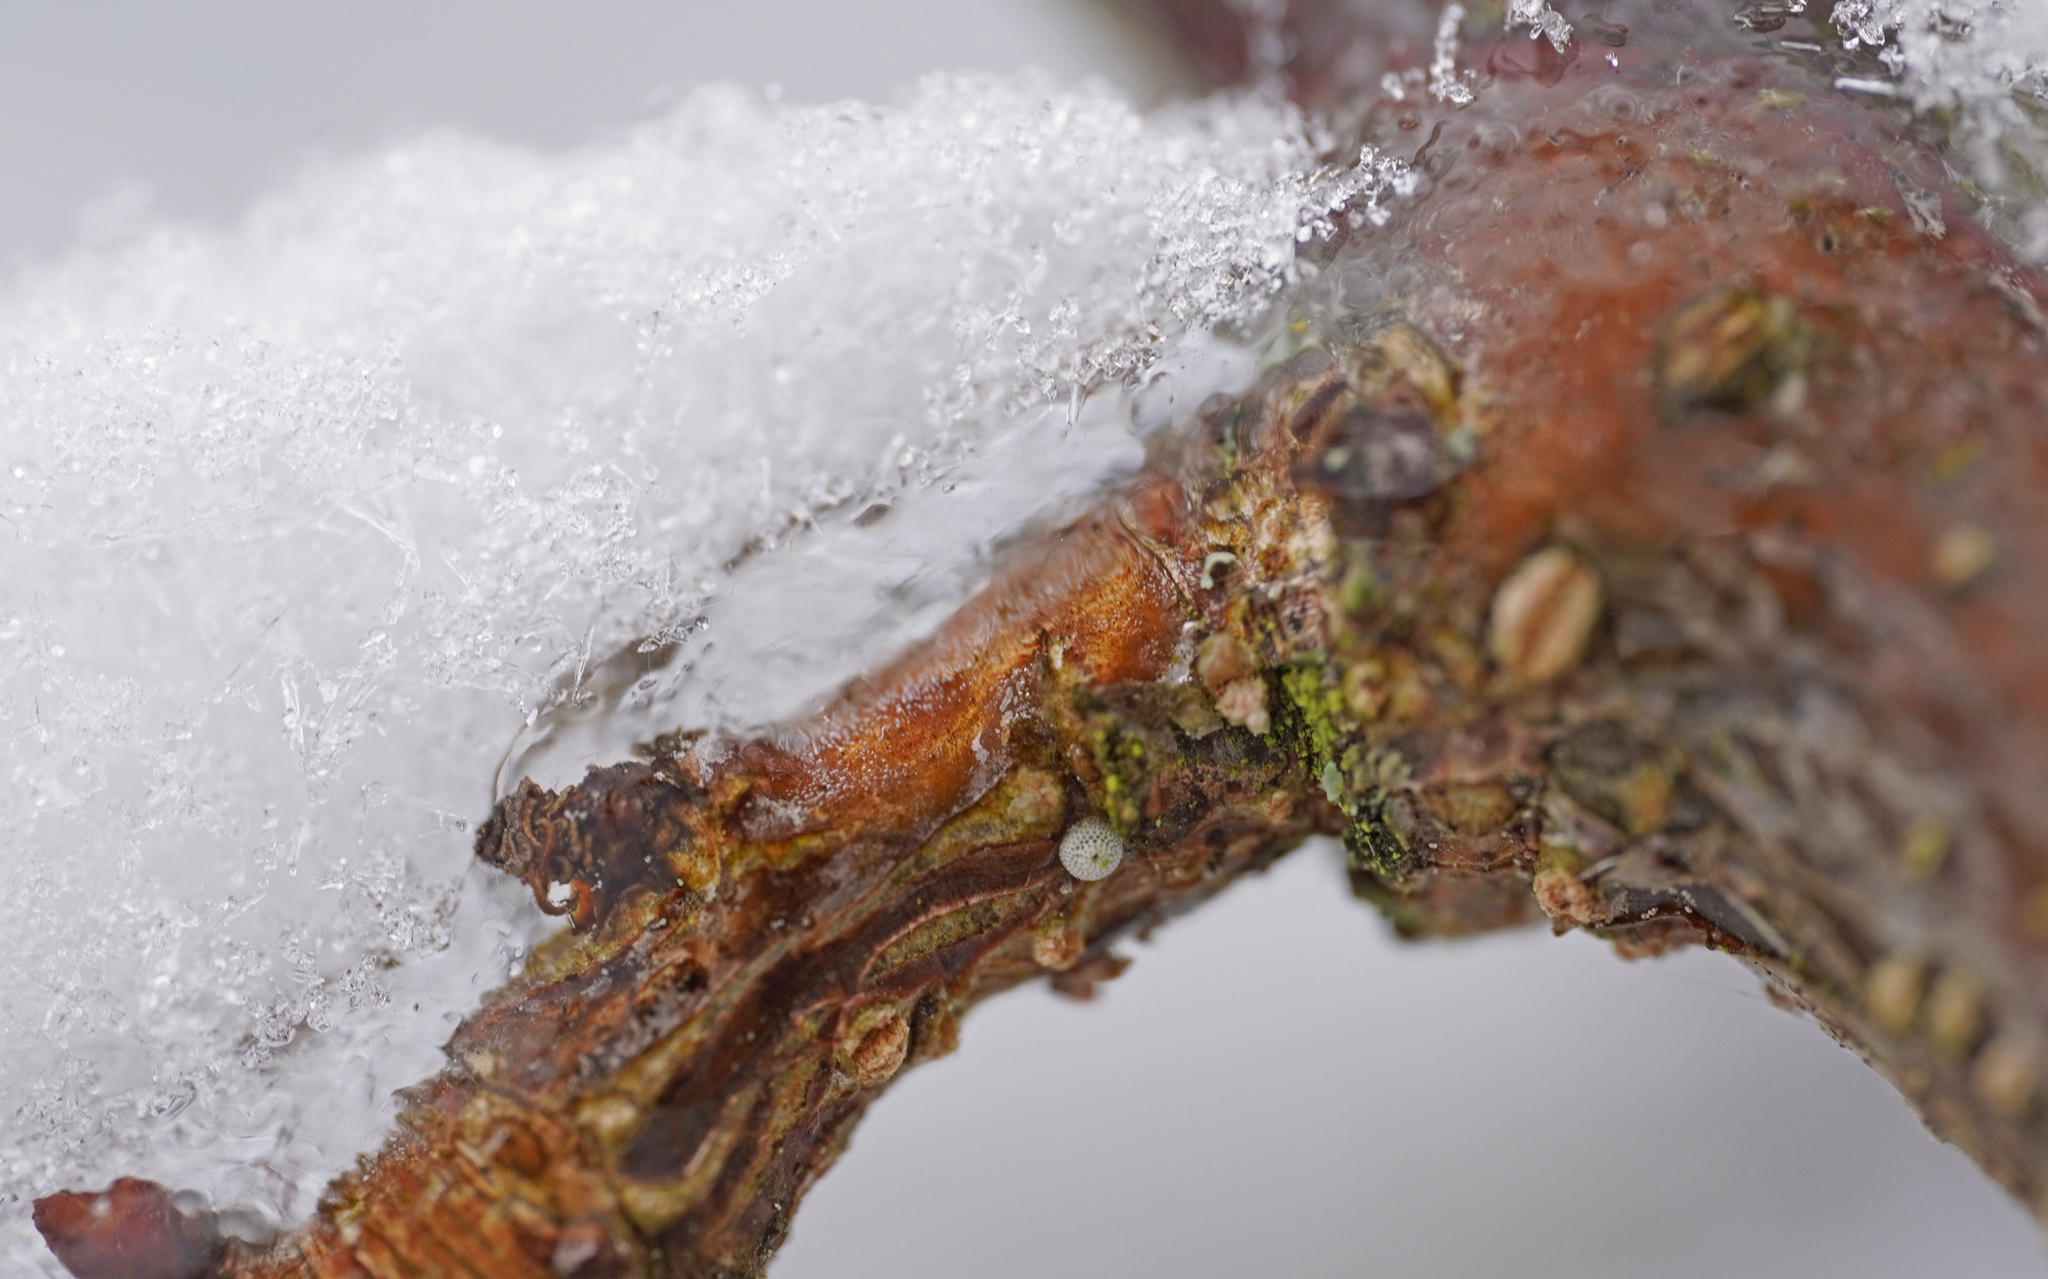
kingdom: Animalia
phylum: Arthropoda
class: Insecta
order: Lepidoptera
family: Lycaenidae
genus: Thecla
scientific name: Thecla betulae
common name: Brown hairstreak
